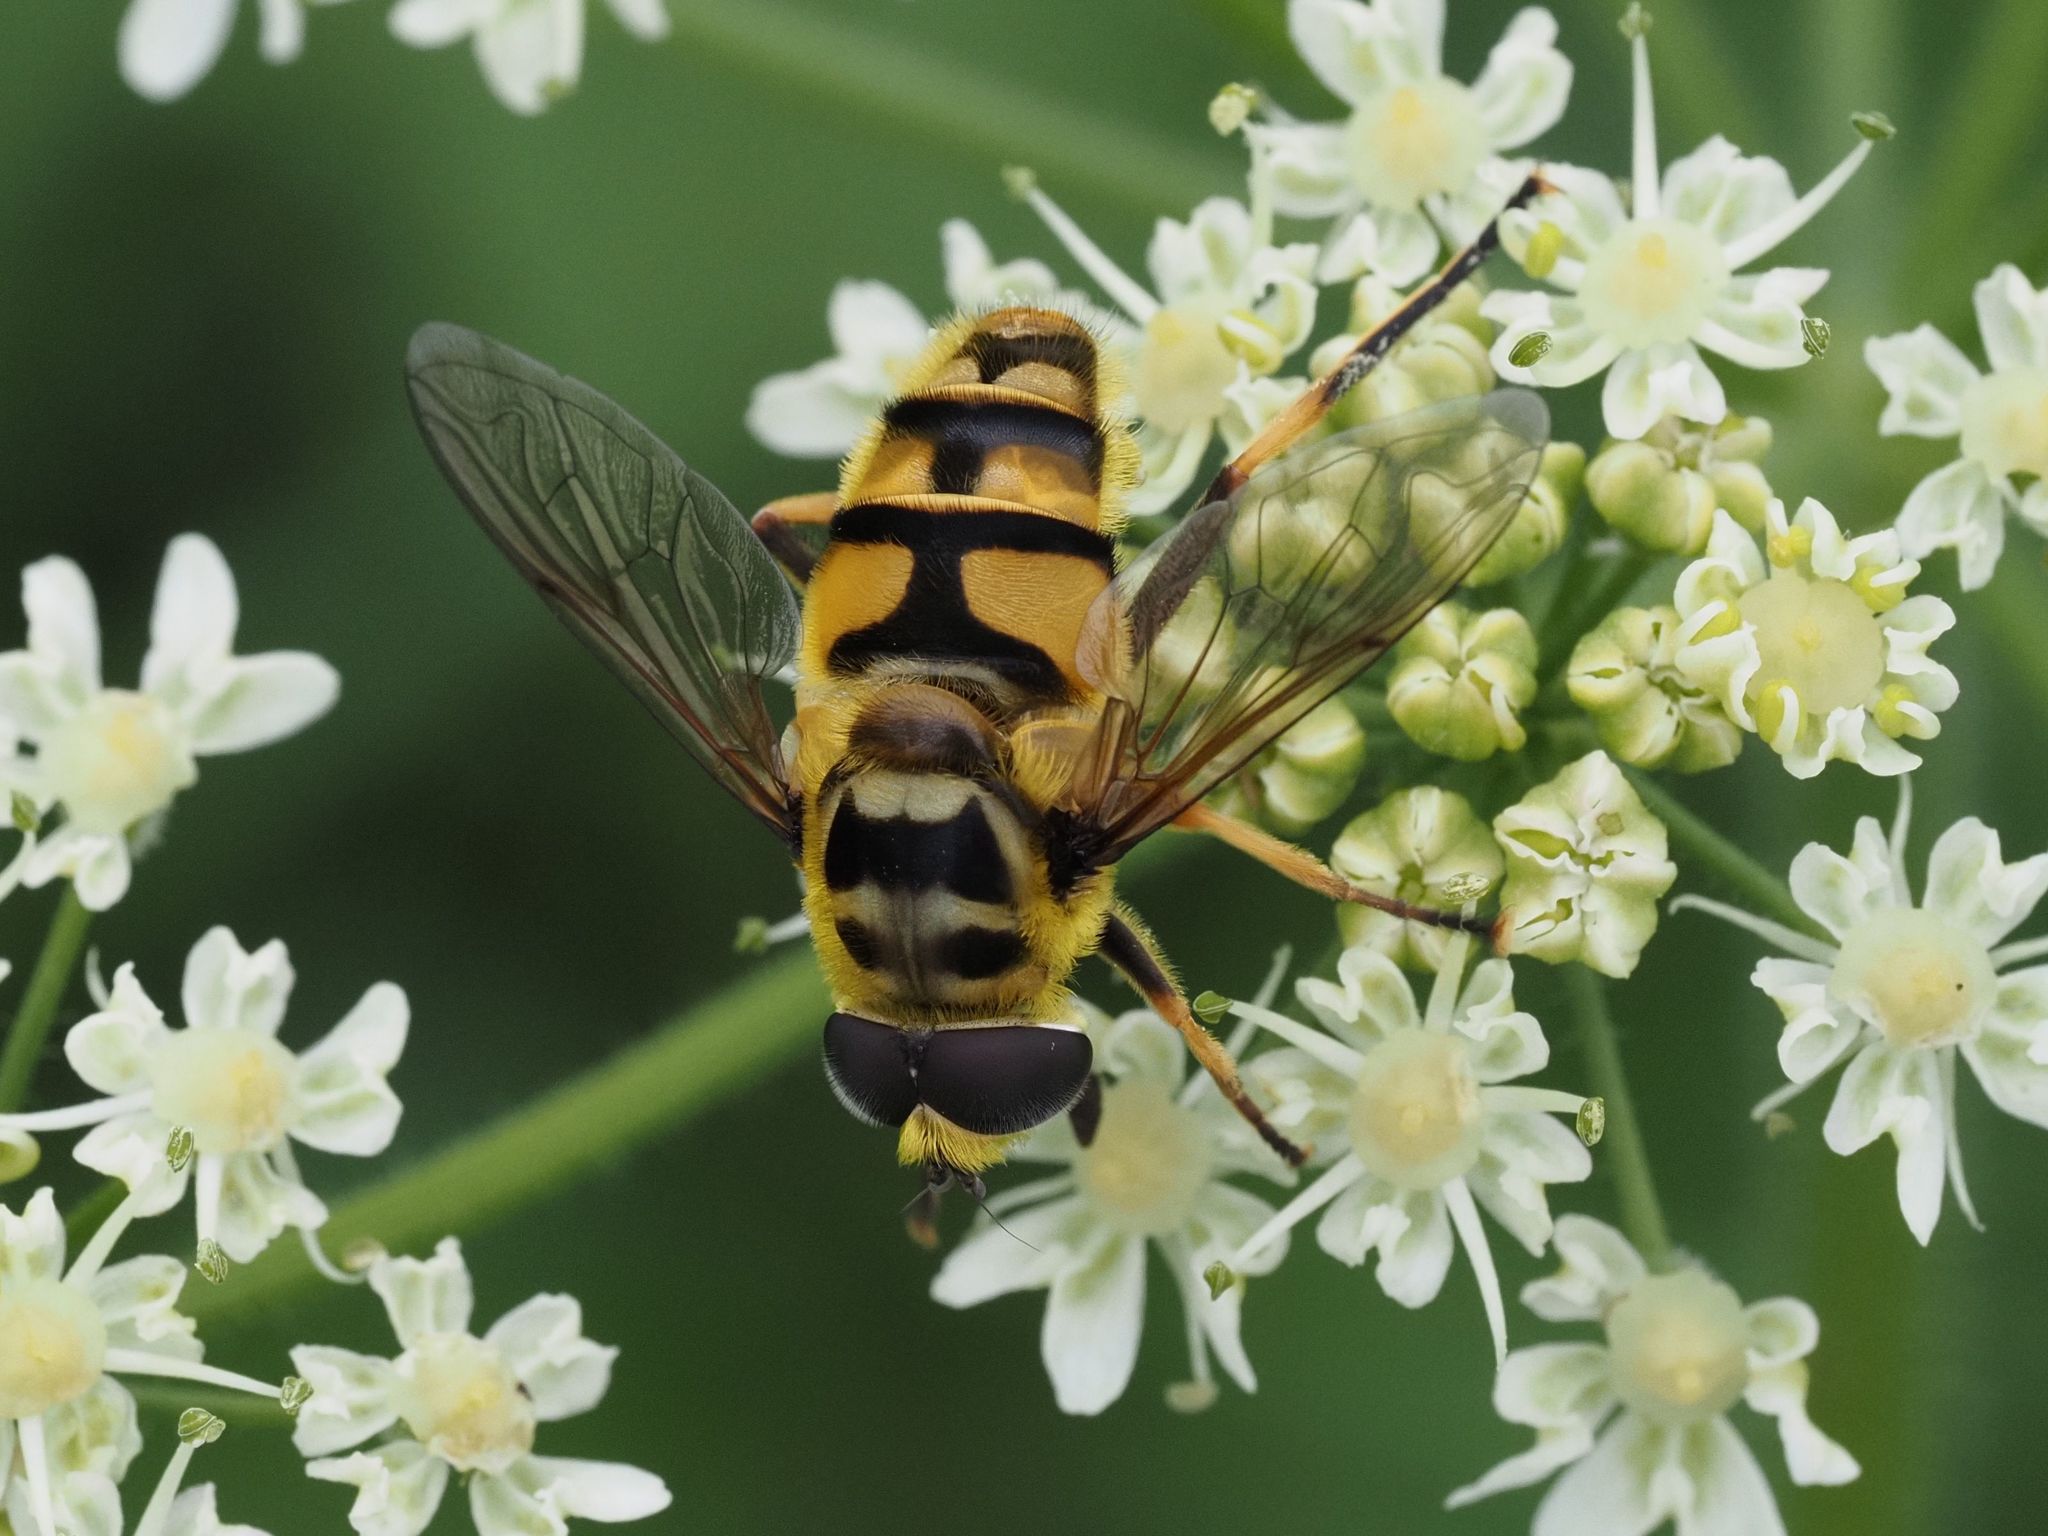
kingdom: Animalia
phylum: Arthropoda
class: Insecta
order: Diptera
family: Syrphidae
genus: Myathropa
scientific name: Myathropa florea
